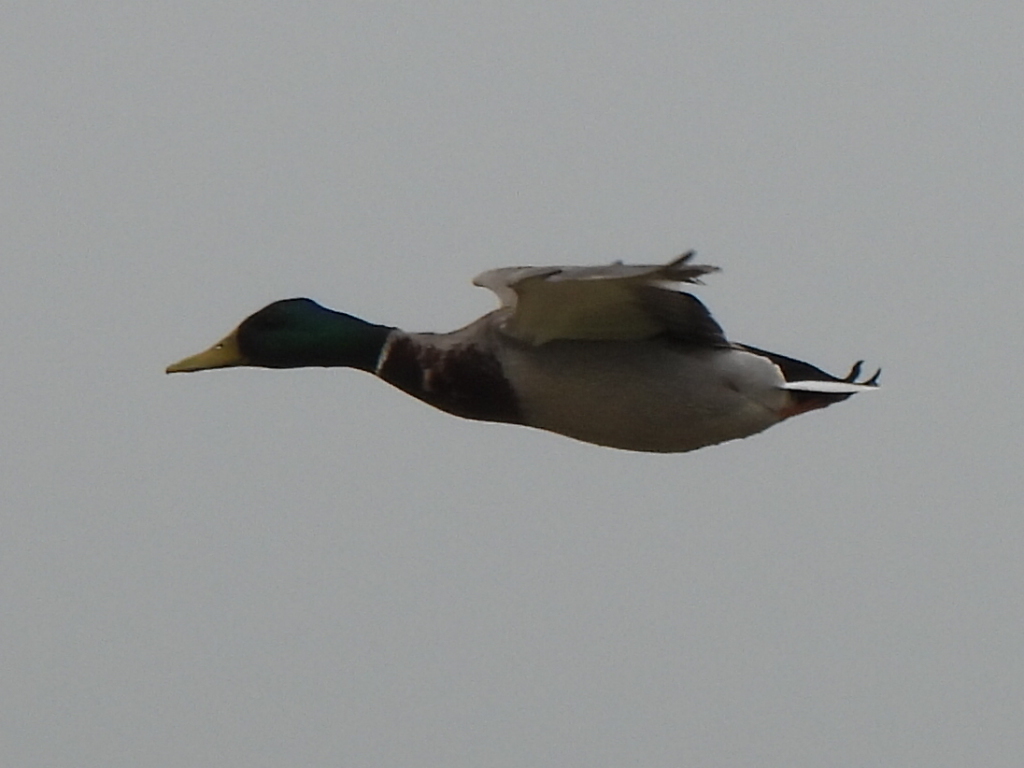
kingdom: Animalia
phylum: Chordata
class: Aves
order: Anseriformes
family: Anatidae
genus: Anas
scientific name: Anas platyrhynchos
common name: Mallard
